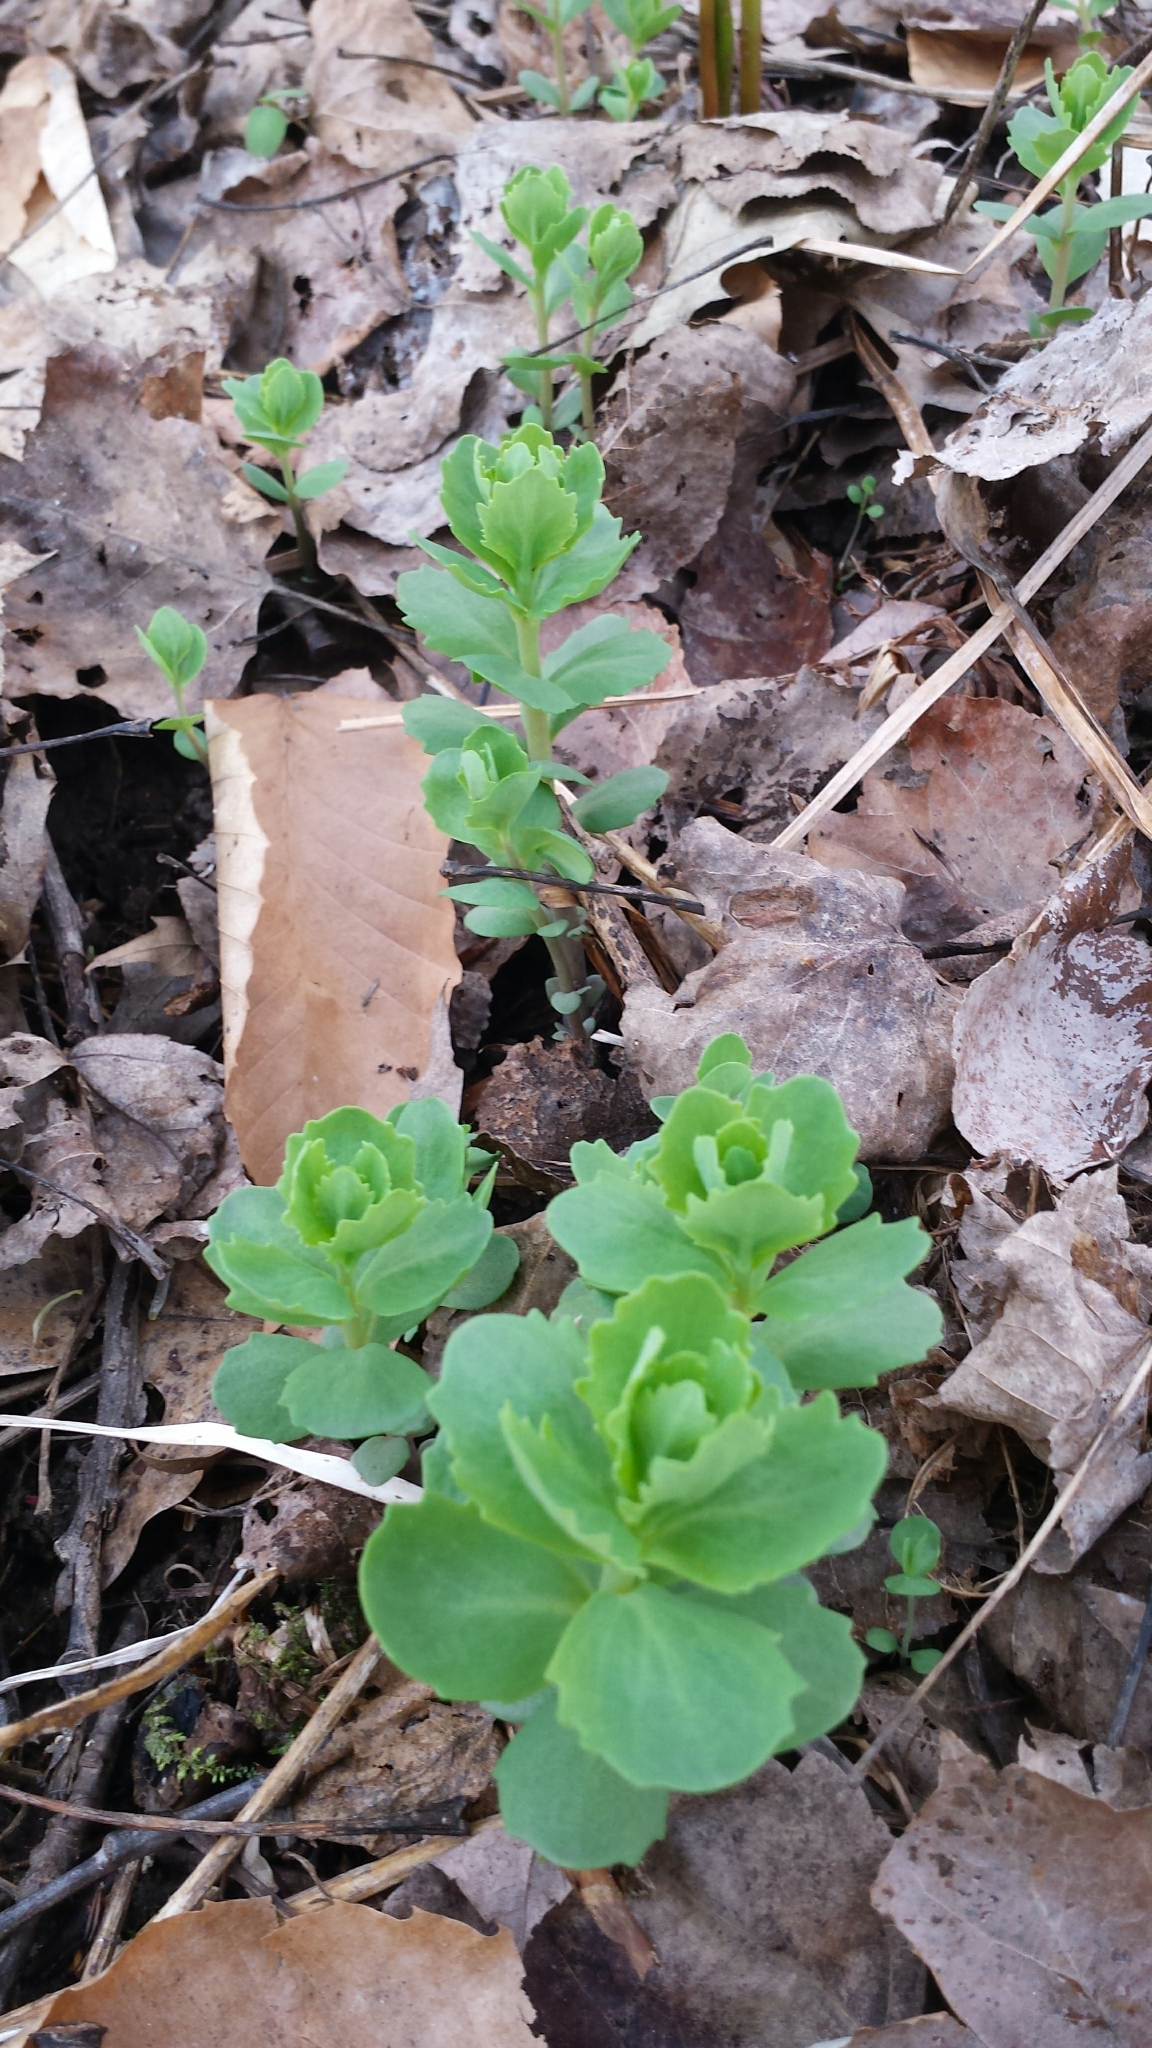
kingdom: Plantae
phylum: Tracheophyta
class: Magnoliopsida
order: Saxifragales
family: Crassulaceae
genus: Hylotelephium
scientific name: Hylotelephium telephium
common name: Live-forever
